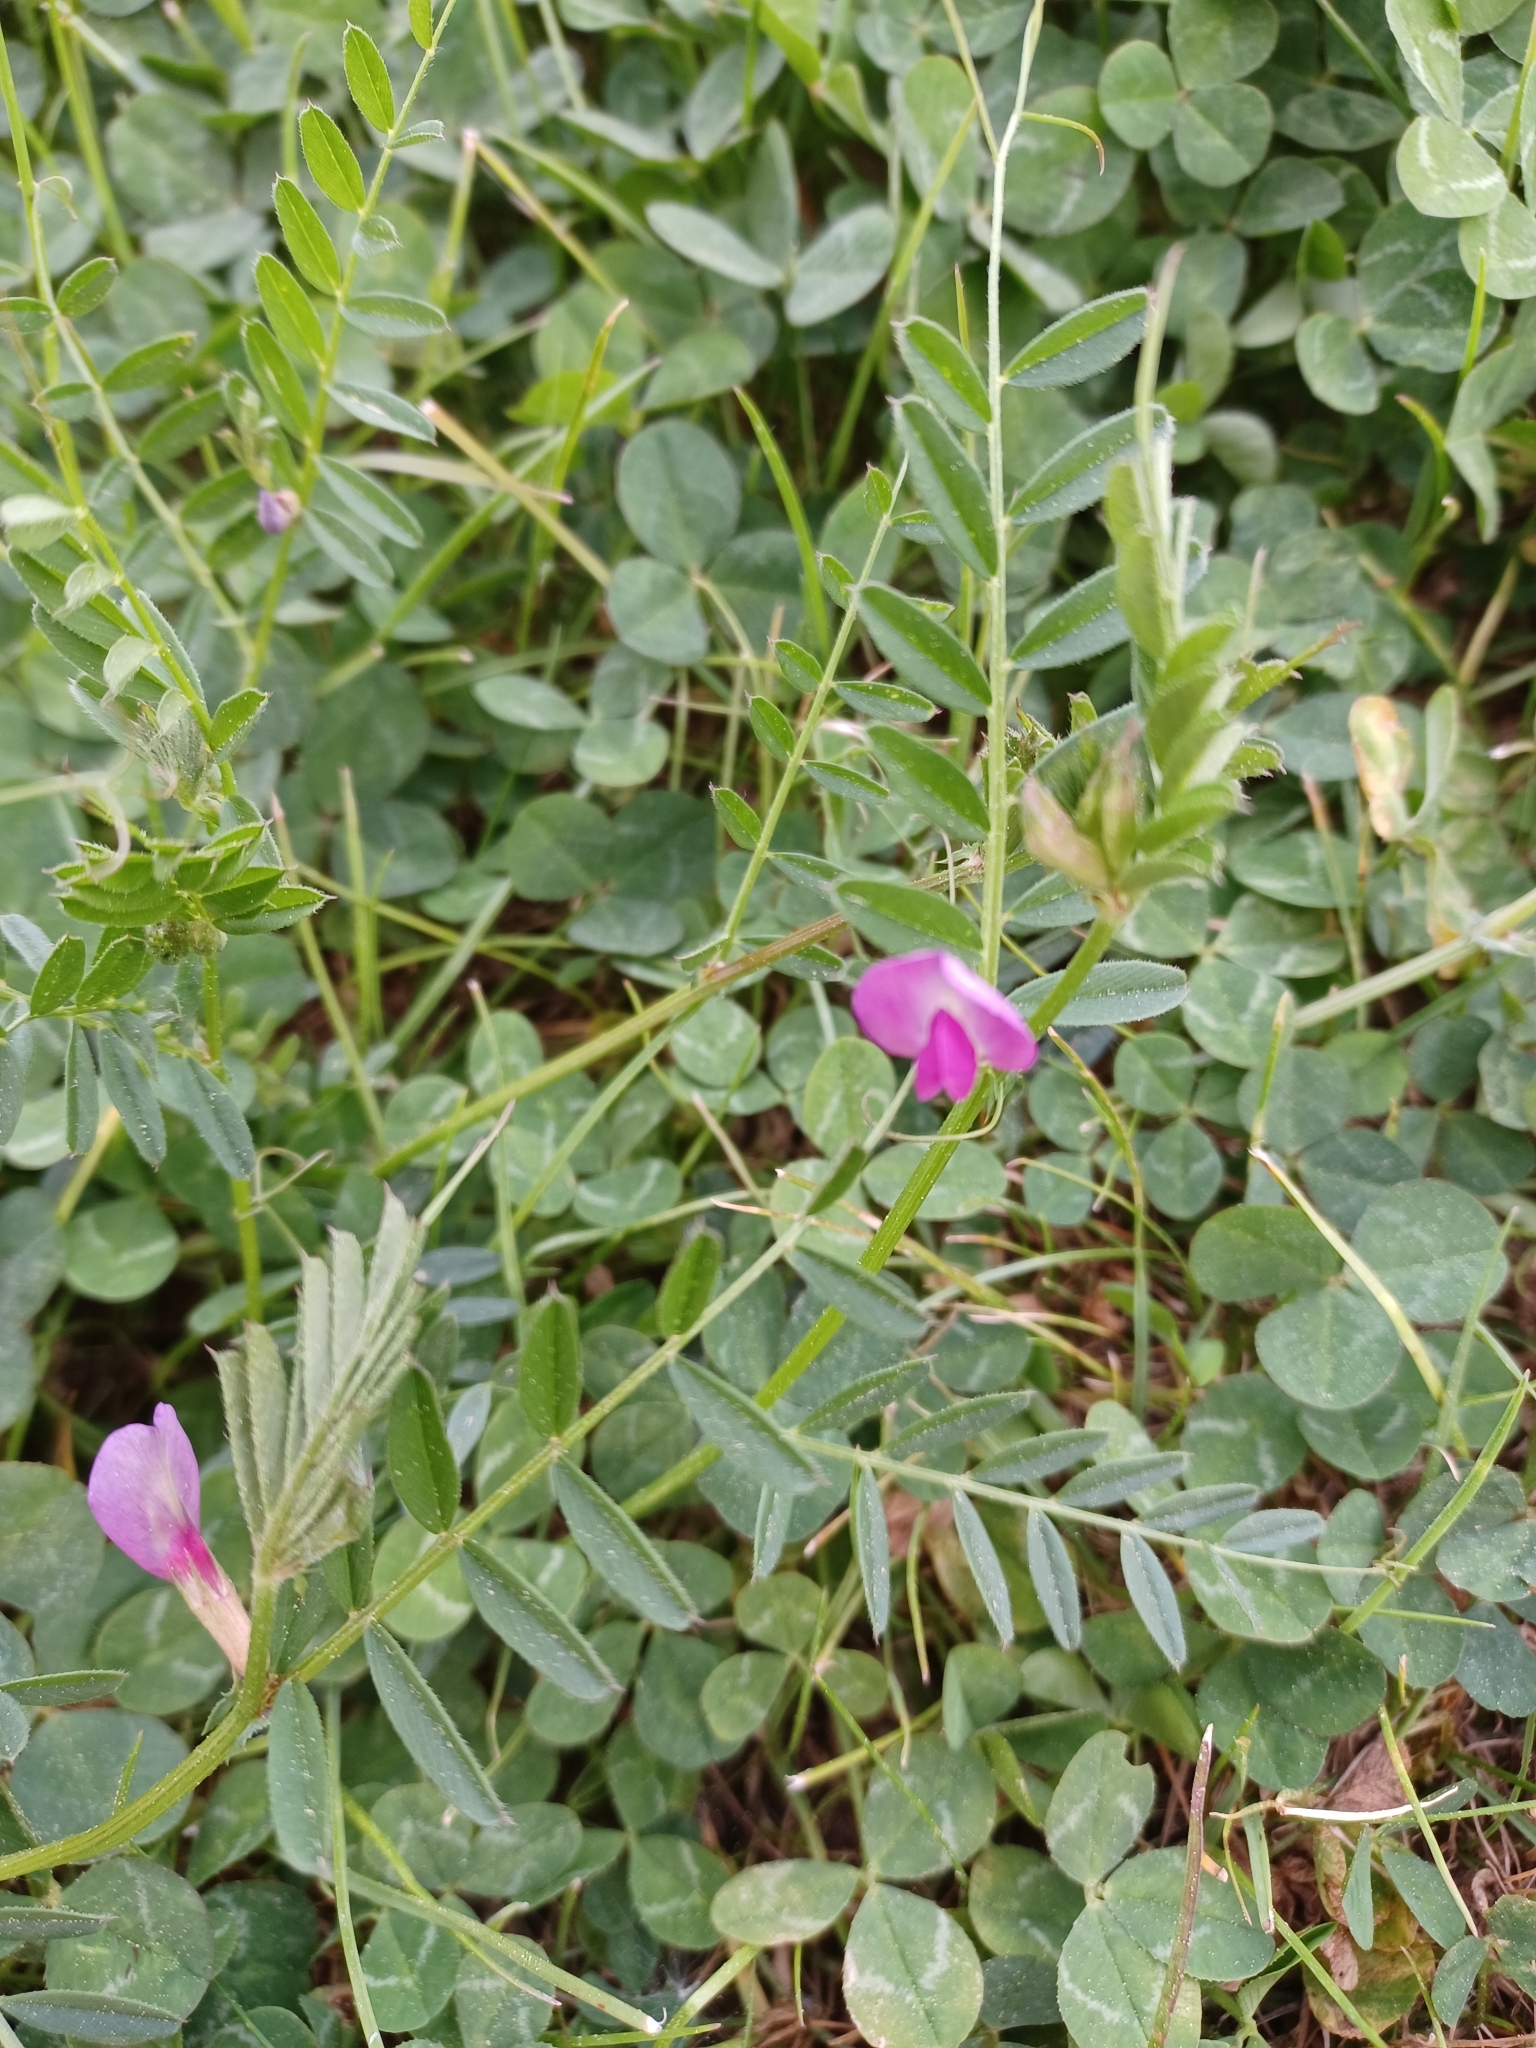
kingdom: Plantae
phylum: Tracheophyta
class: Magnoliopsida
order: Fabales
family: Fabaceae
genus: Vicia
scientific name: Vicia sativa
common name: Garden vetch
